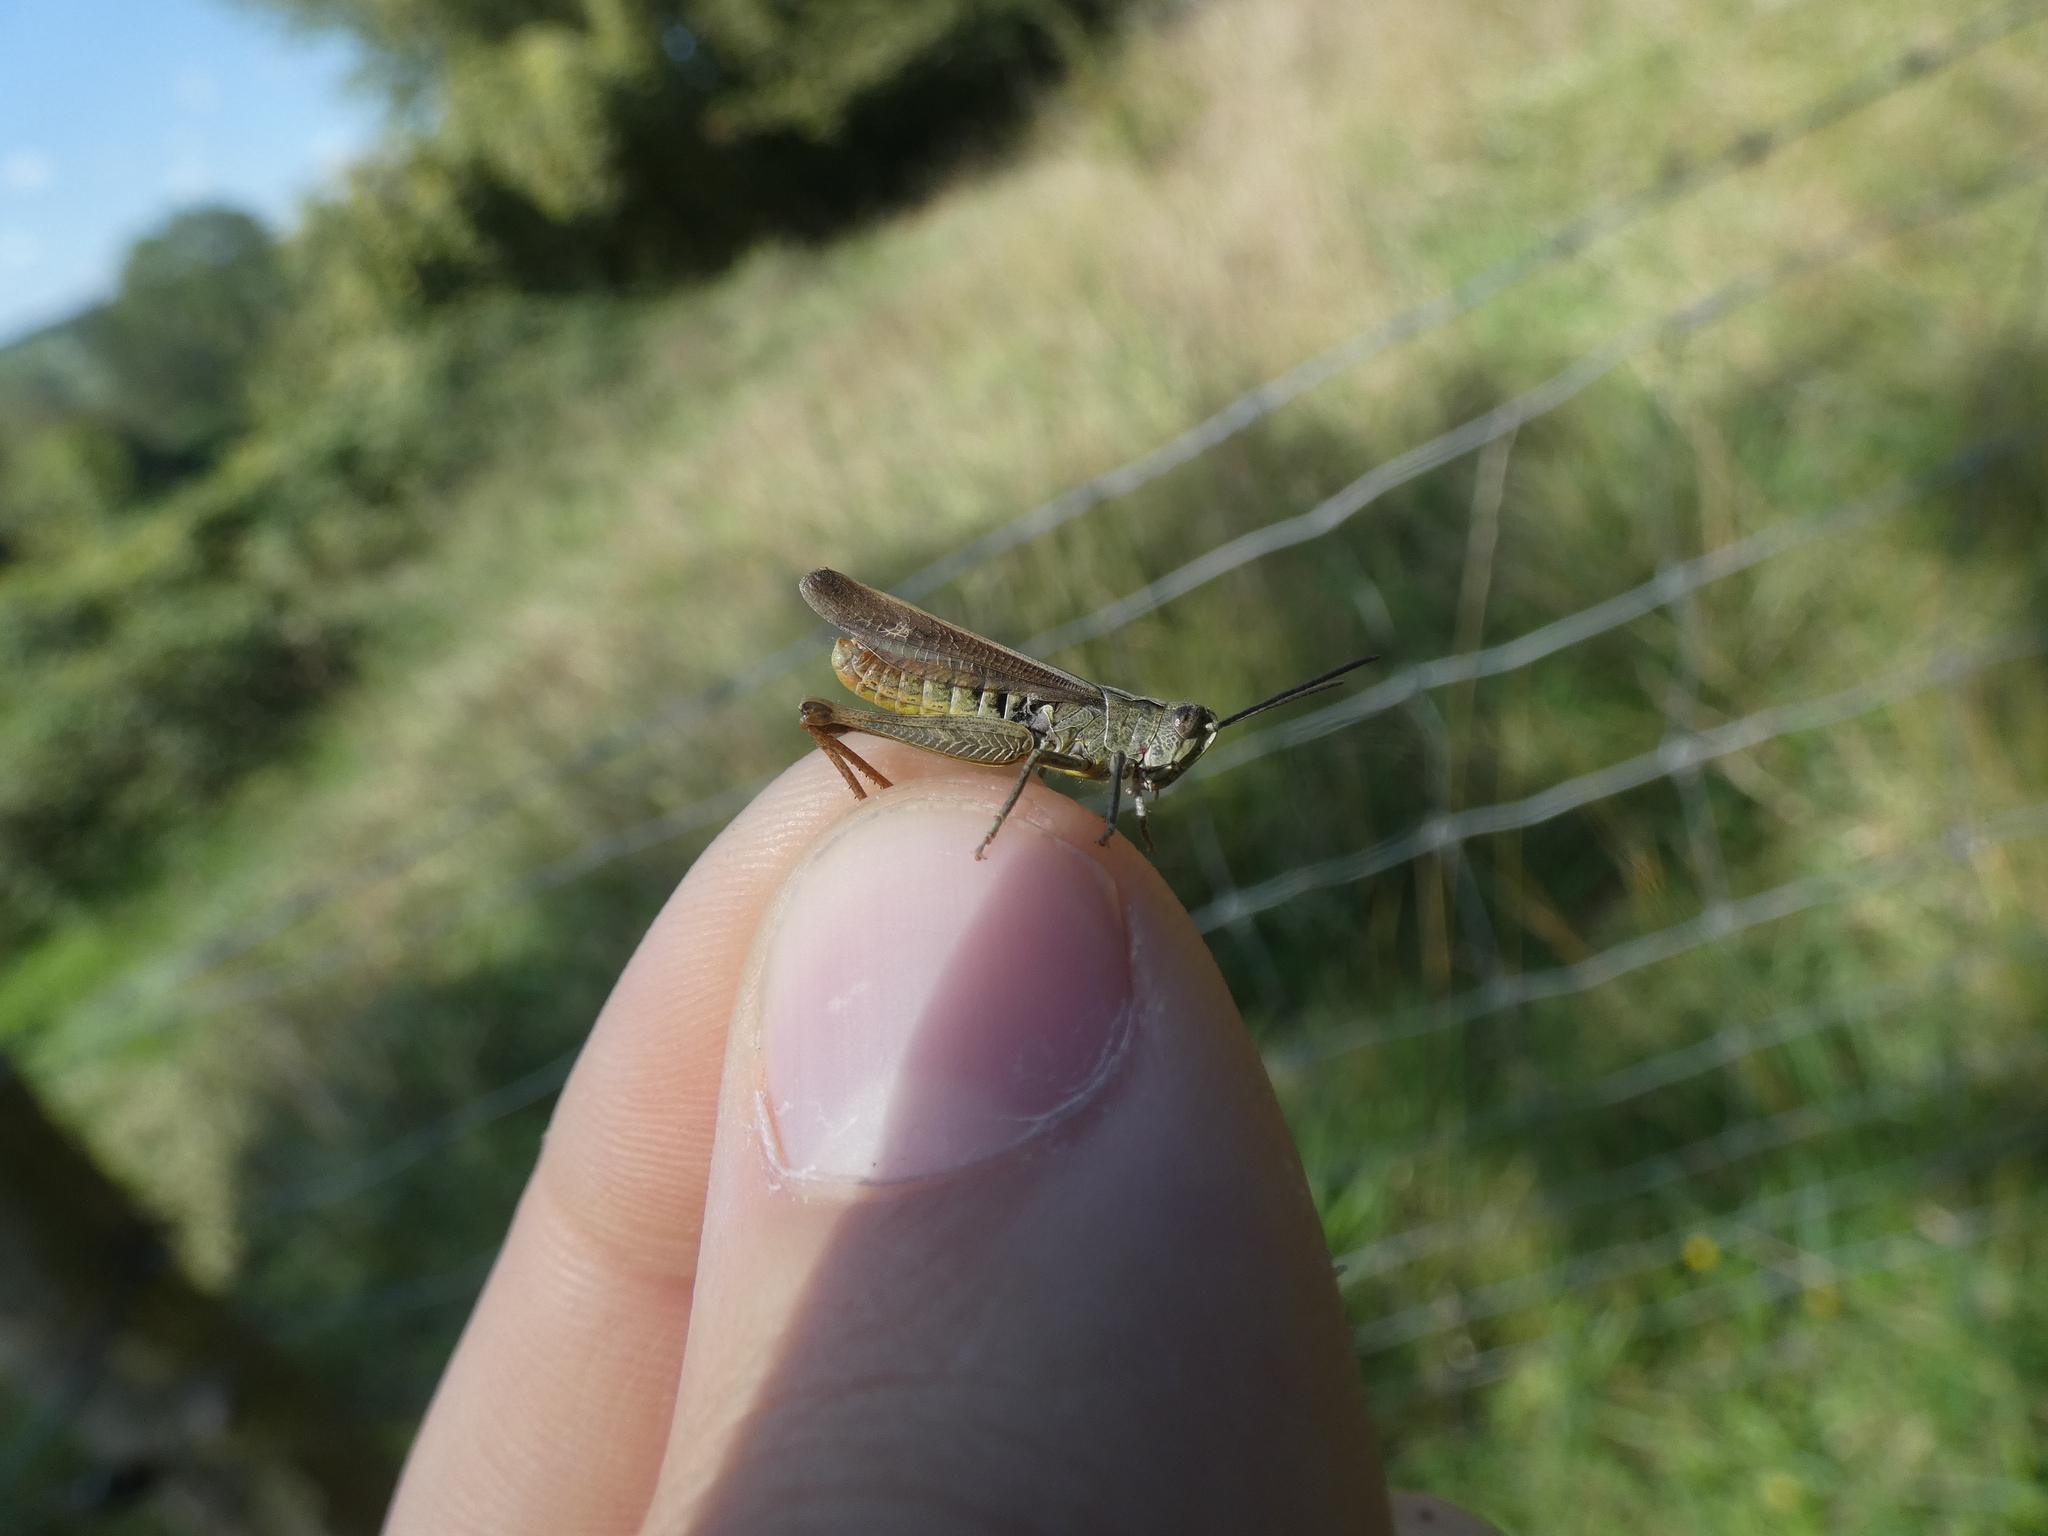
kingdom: Animalia
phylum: Arthropoda
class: Insecta
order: Orthoptera
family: Acrididae
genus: Chorthippus
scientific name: Chorthippus biguttulus
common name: Bow-winged grasshopper
